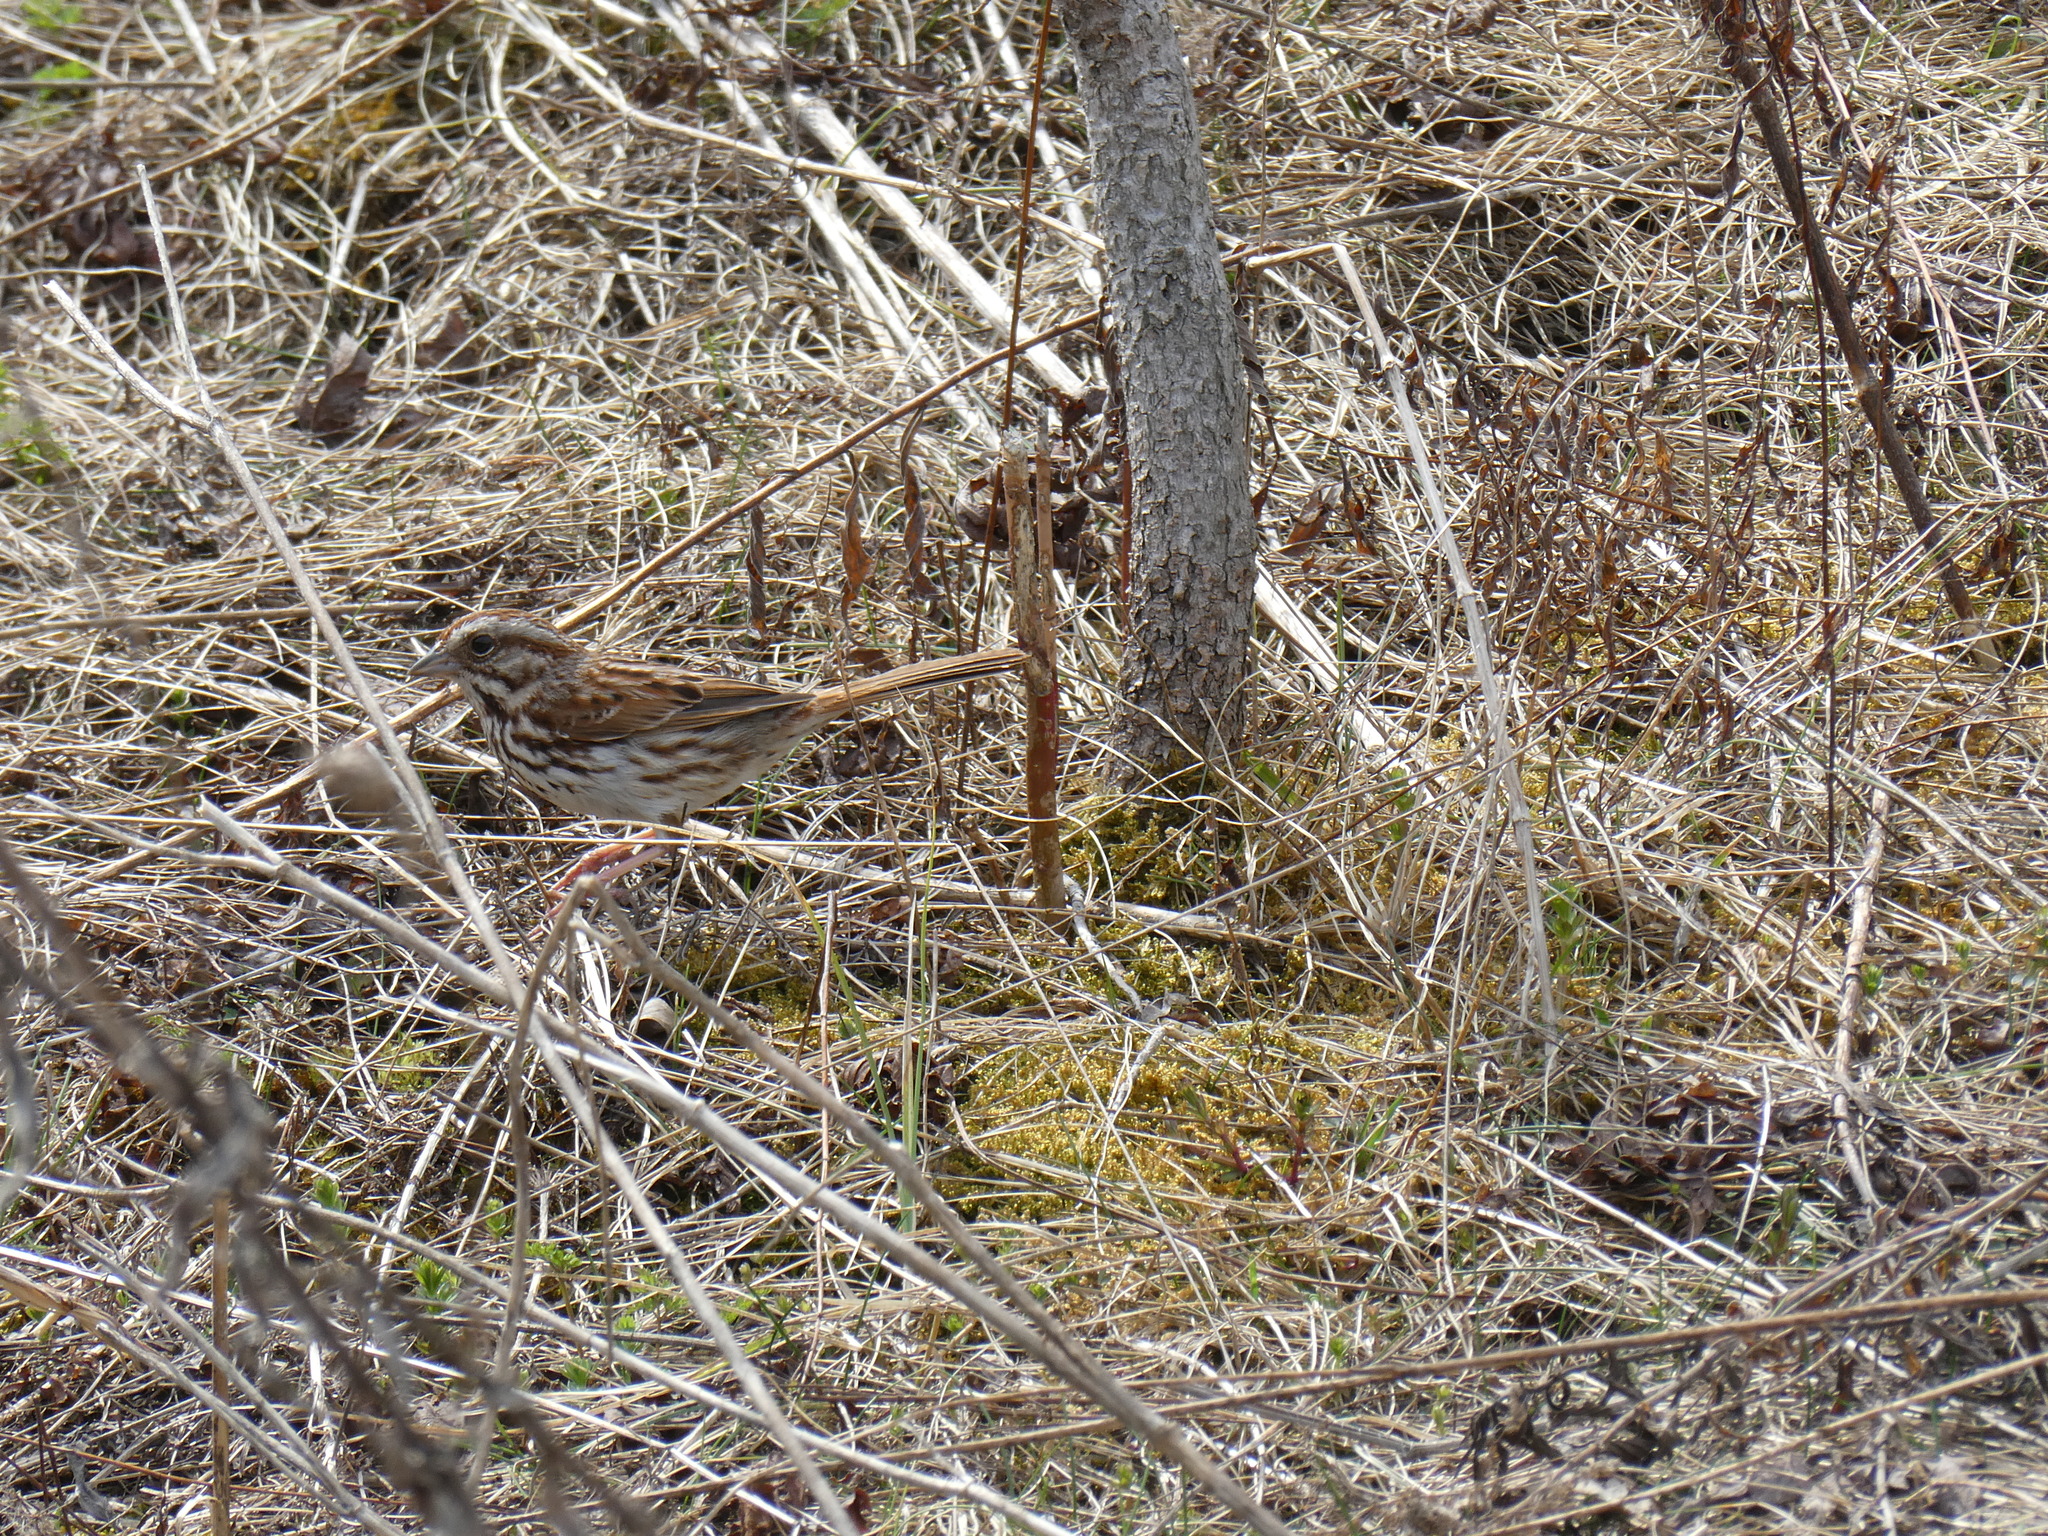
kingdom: Animalia
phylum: Chordata
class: Aves
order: Passeriformes
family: Passerellidae
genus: Melospiza
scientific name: Melospiza melodia
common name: Song sparrow
